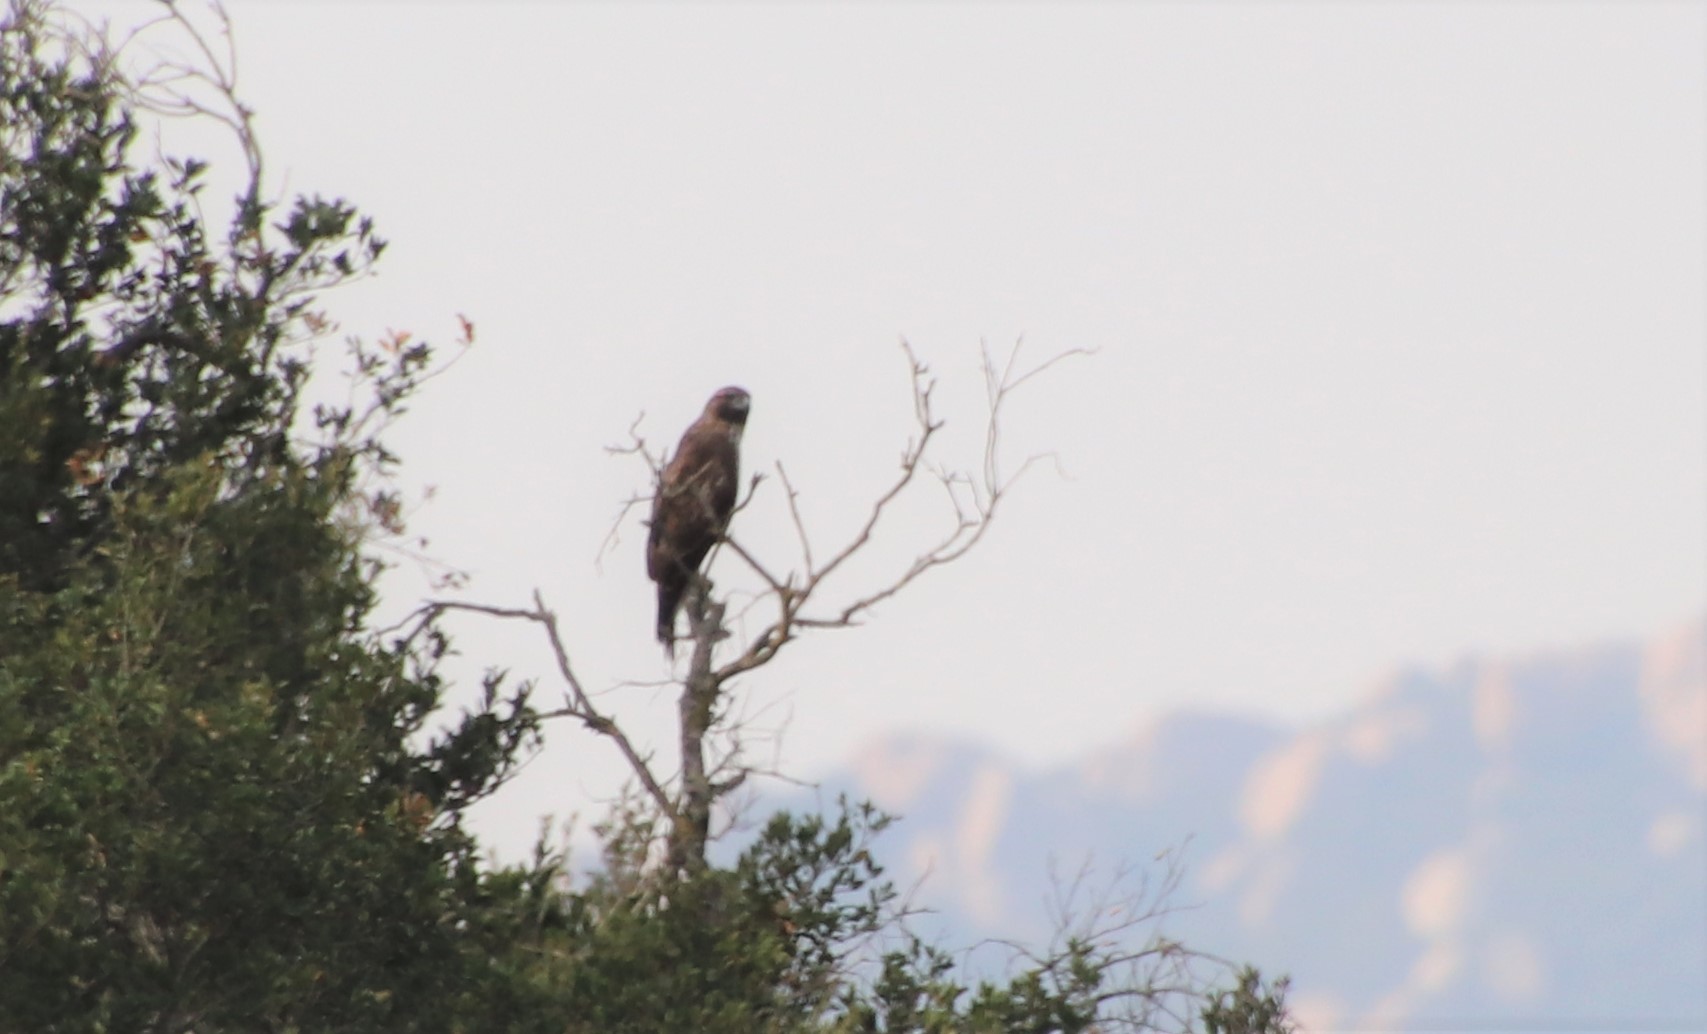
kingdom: Animalia
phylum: Chordata
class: Aves
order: Accipitriformes
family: Accipitridae
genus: Buteo
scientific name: Buteo jamaicensis
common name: Red-tailed hawk
